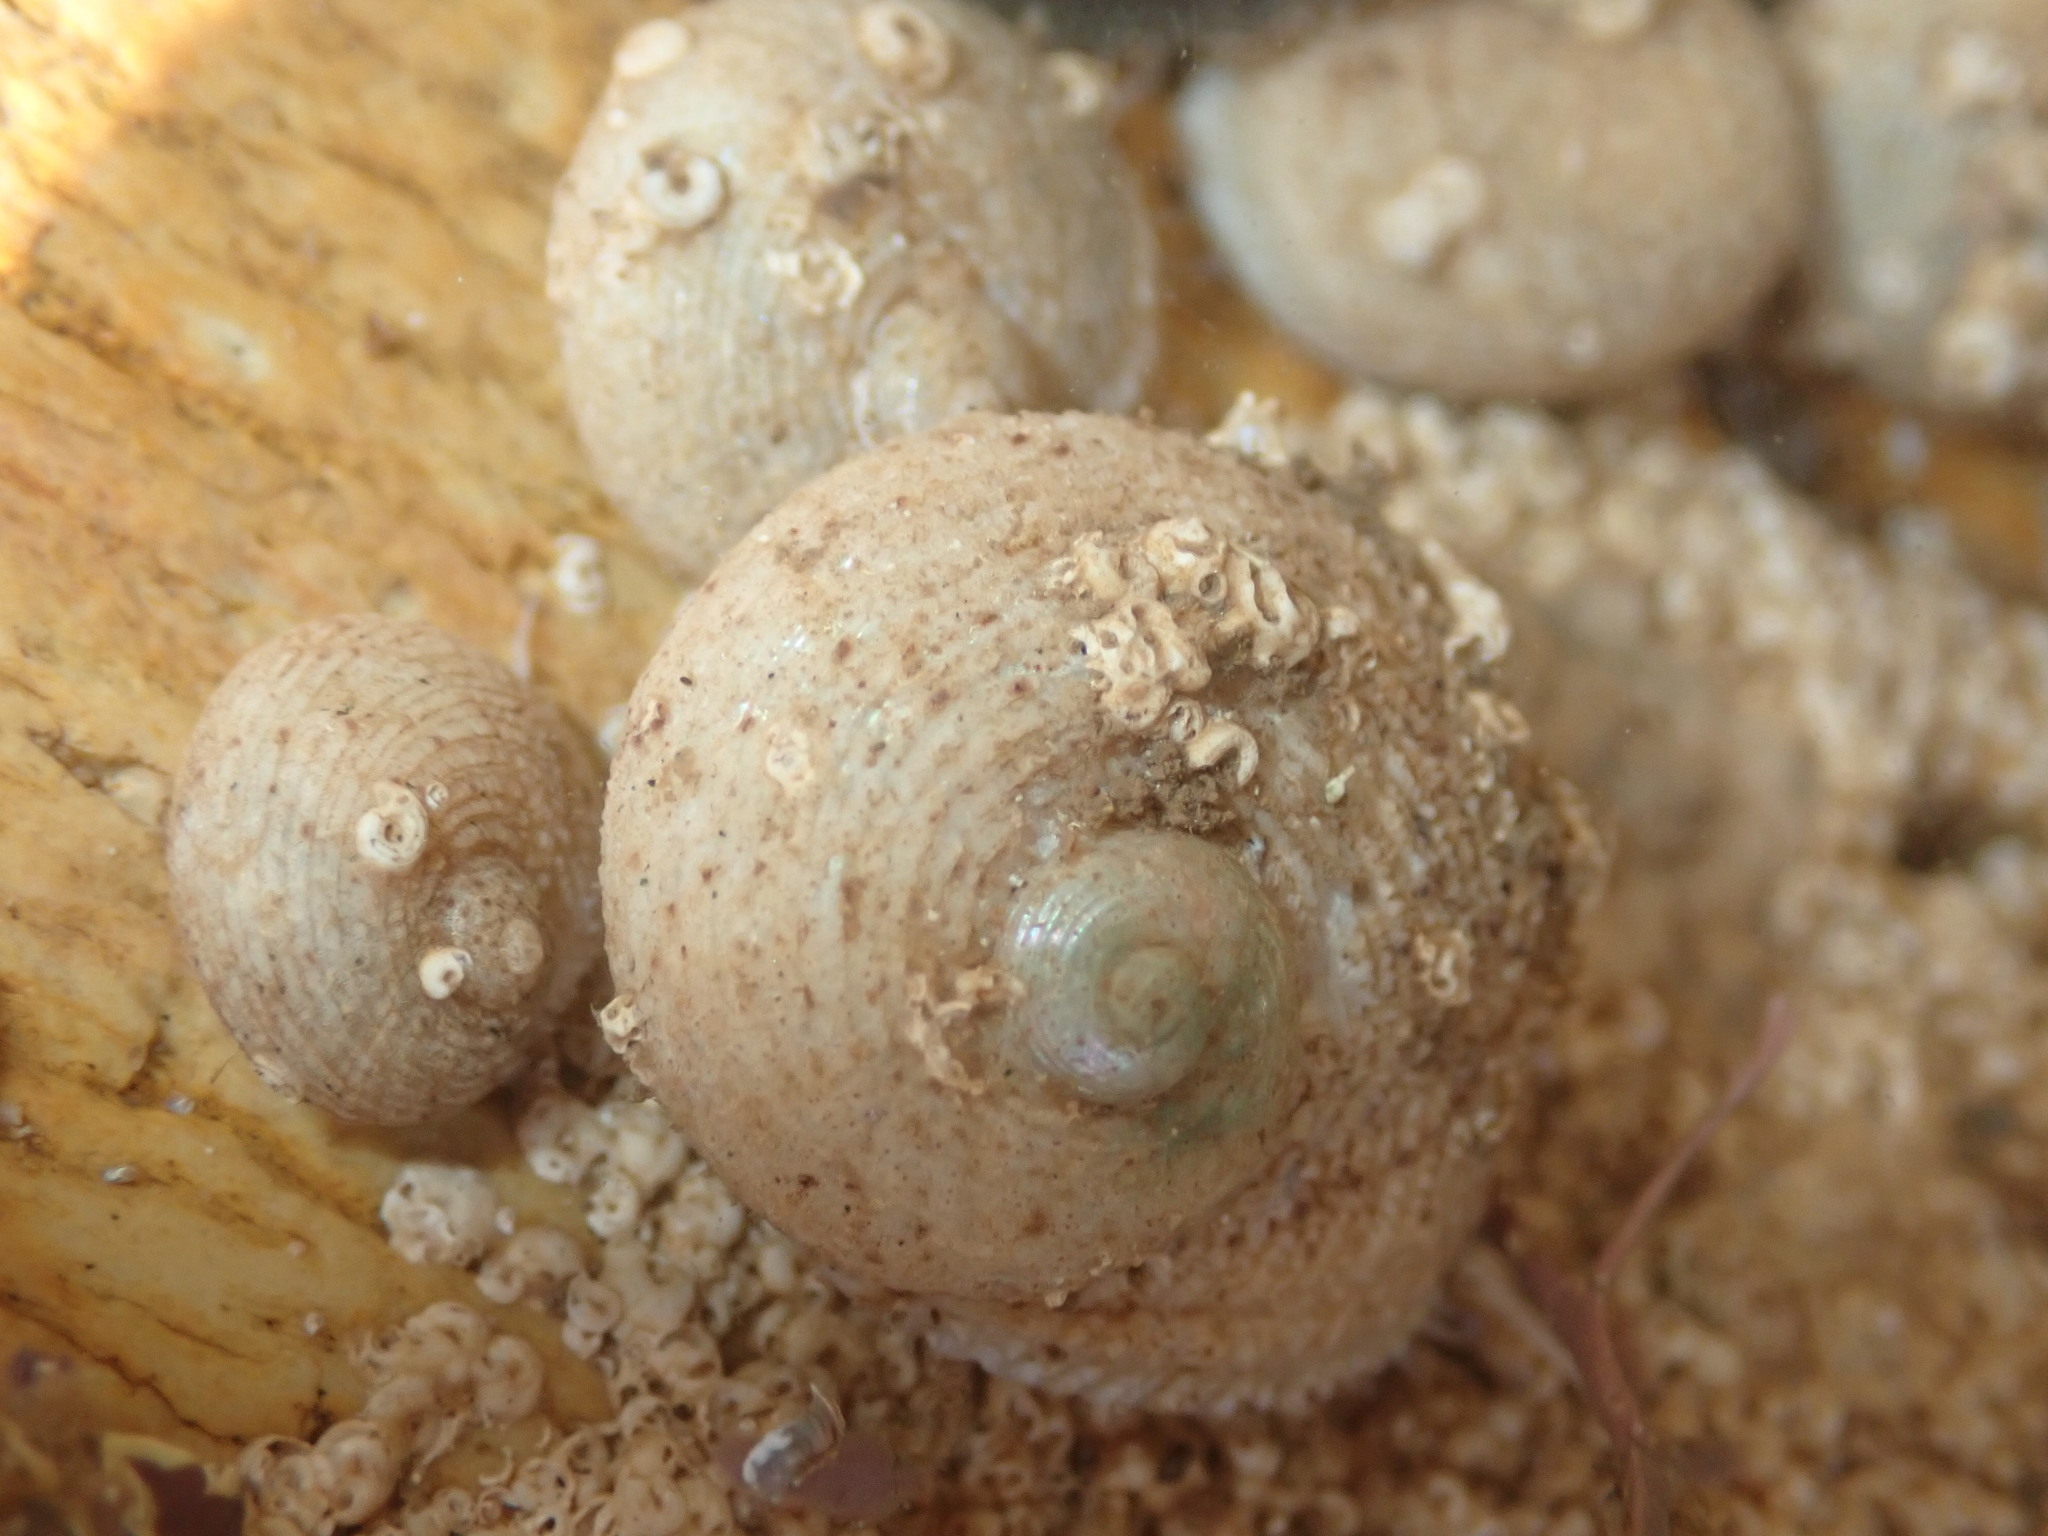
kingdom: Animalia
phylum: Mollusca
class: Gastropoda
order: Seguenziida
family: Chilodontaidae
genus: Granata
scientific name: Granata imbricata
